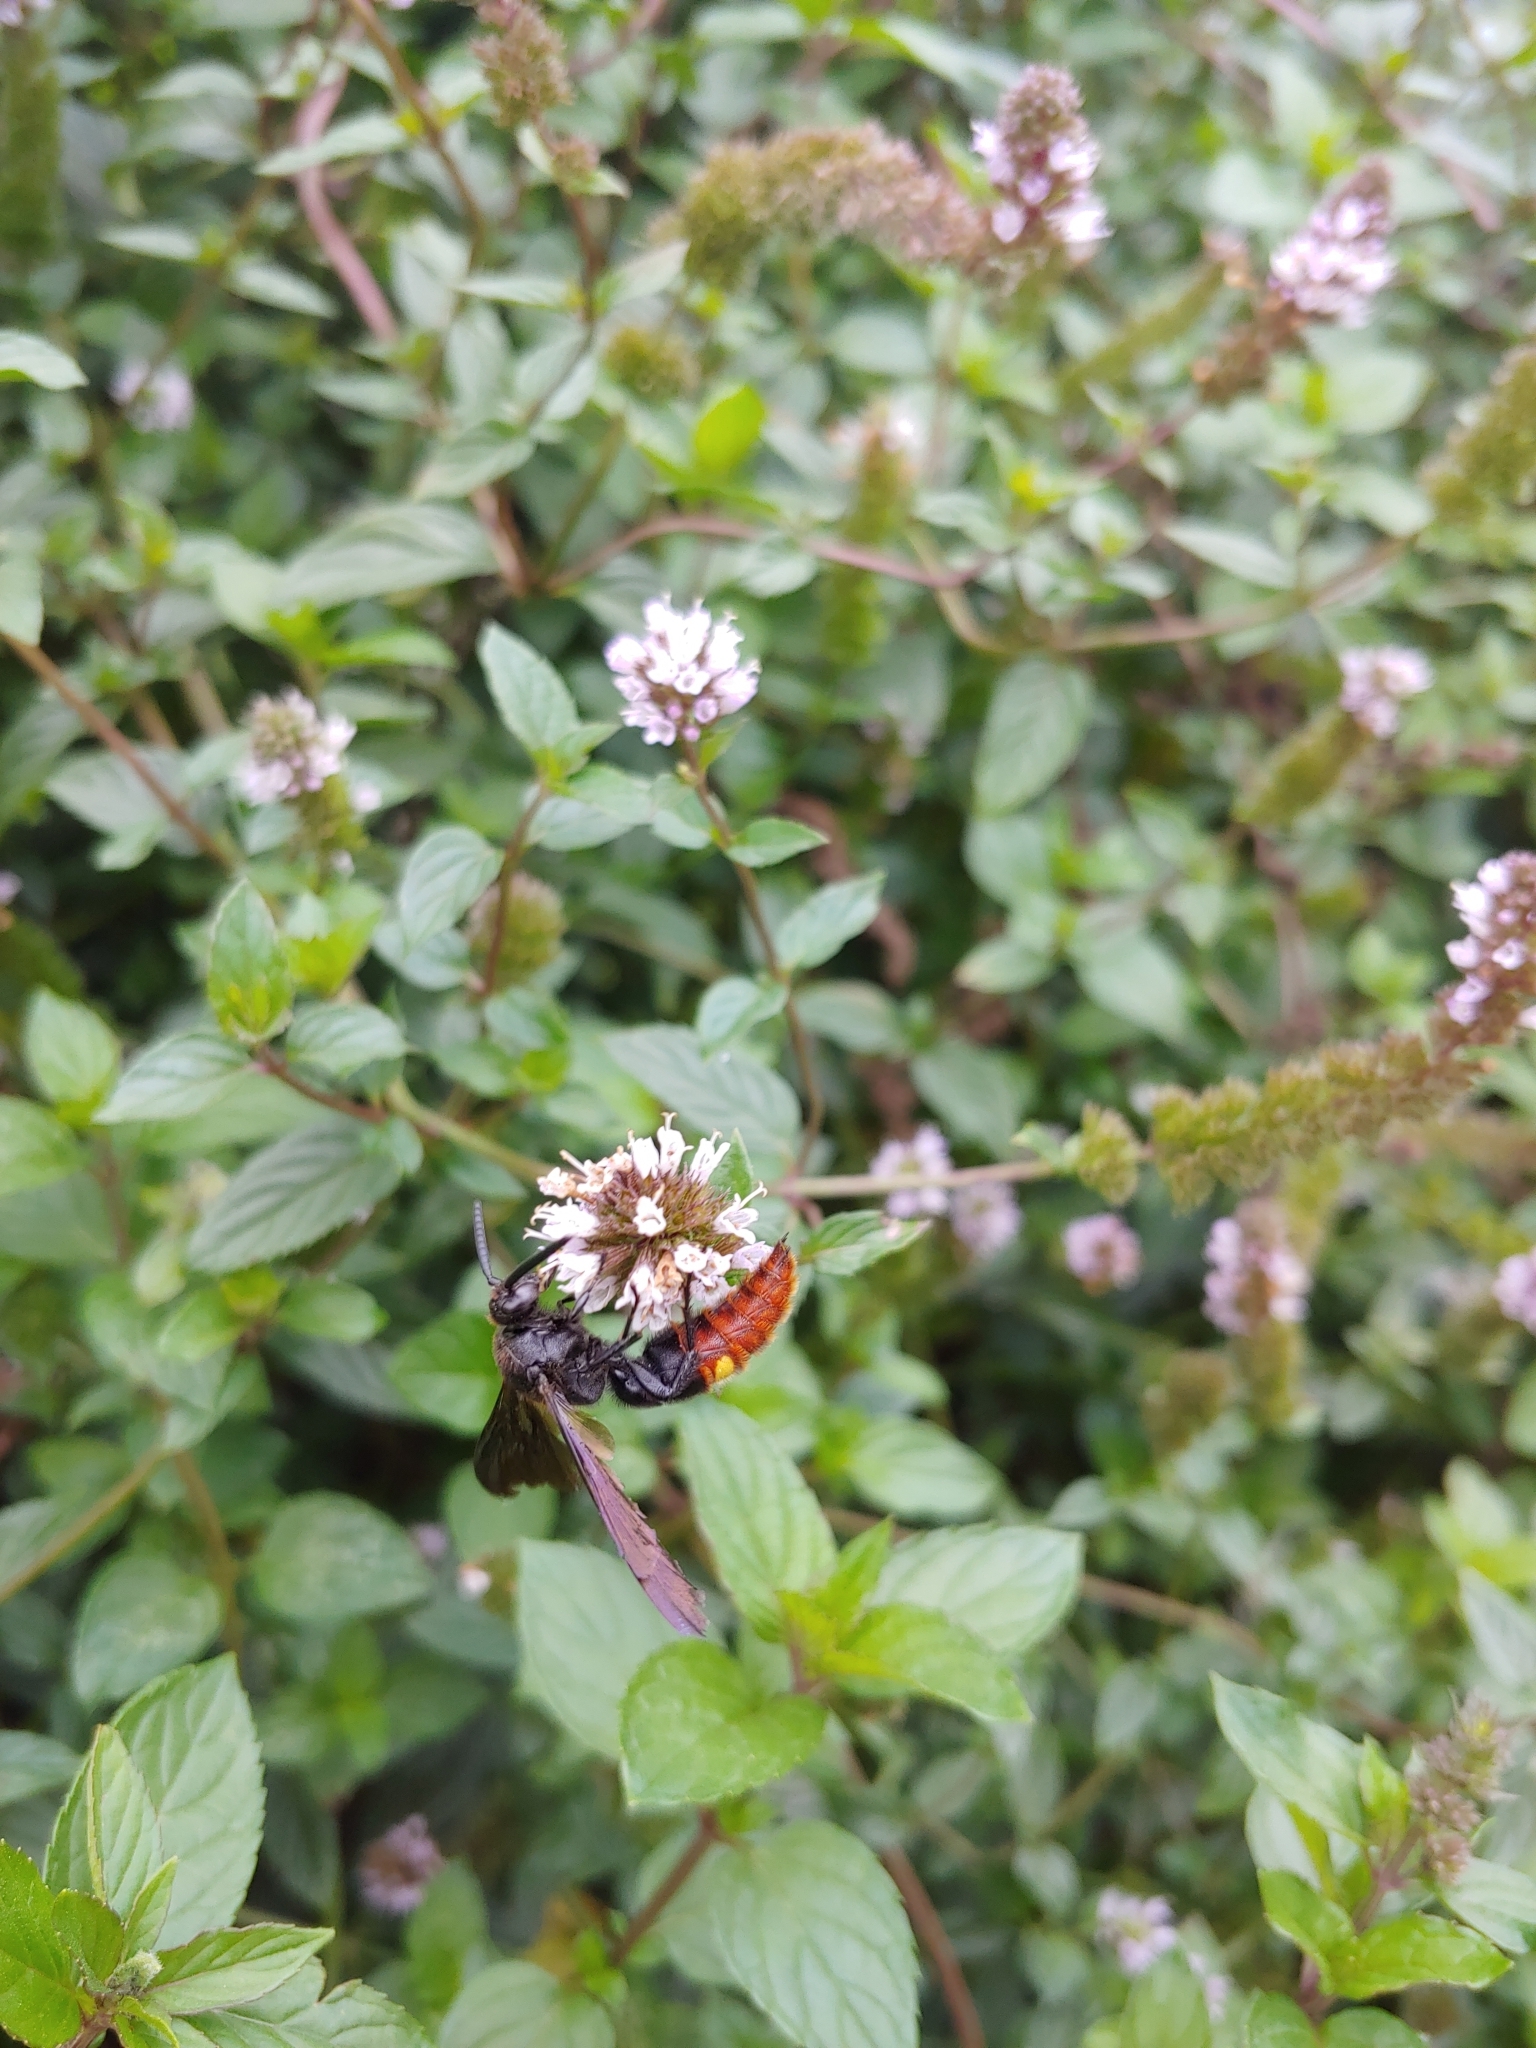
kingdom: Animalia
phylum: Arthropoda
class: Insecta
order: Hymenoptera
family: Scoliidae
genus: Scolia
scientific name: Scolia dubia
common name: Blue-winged scoliid wasp
